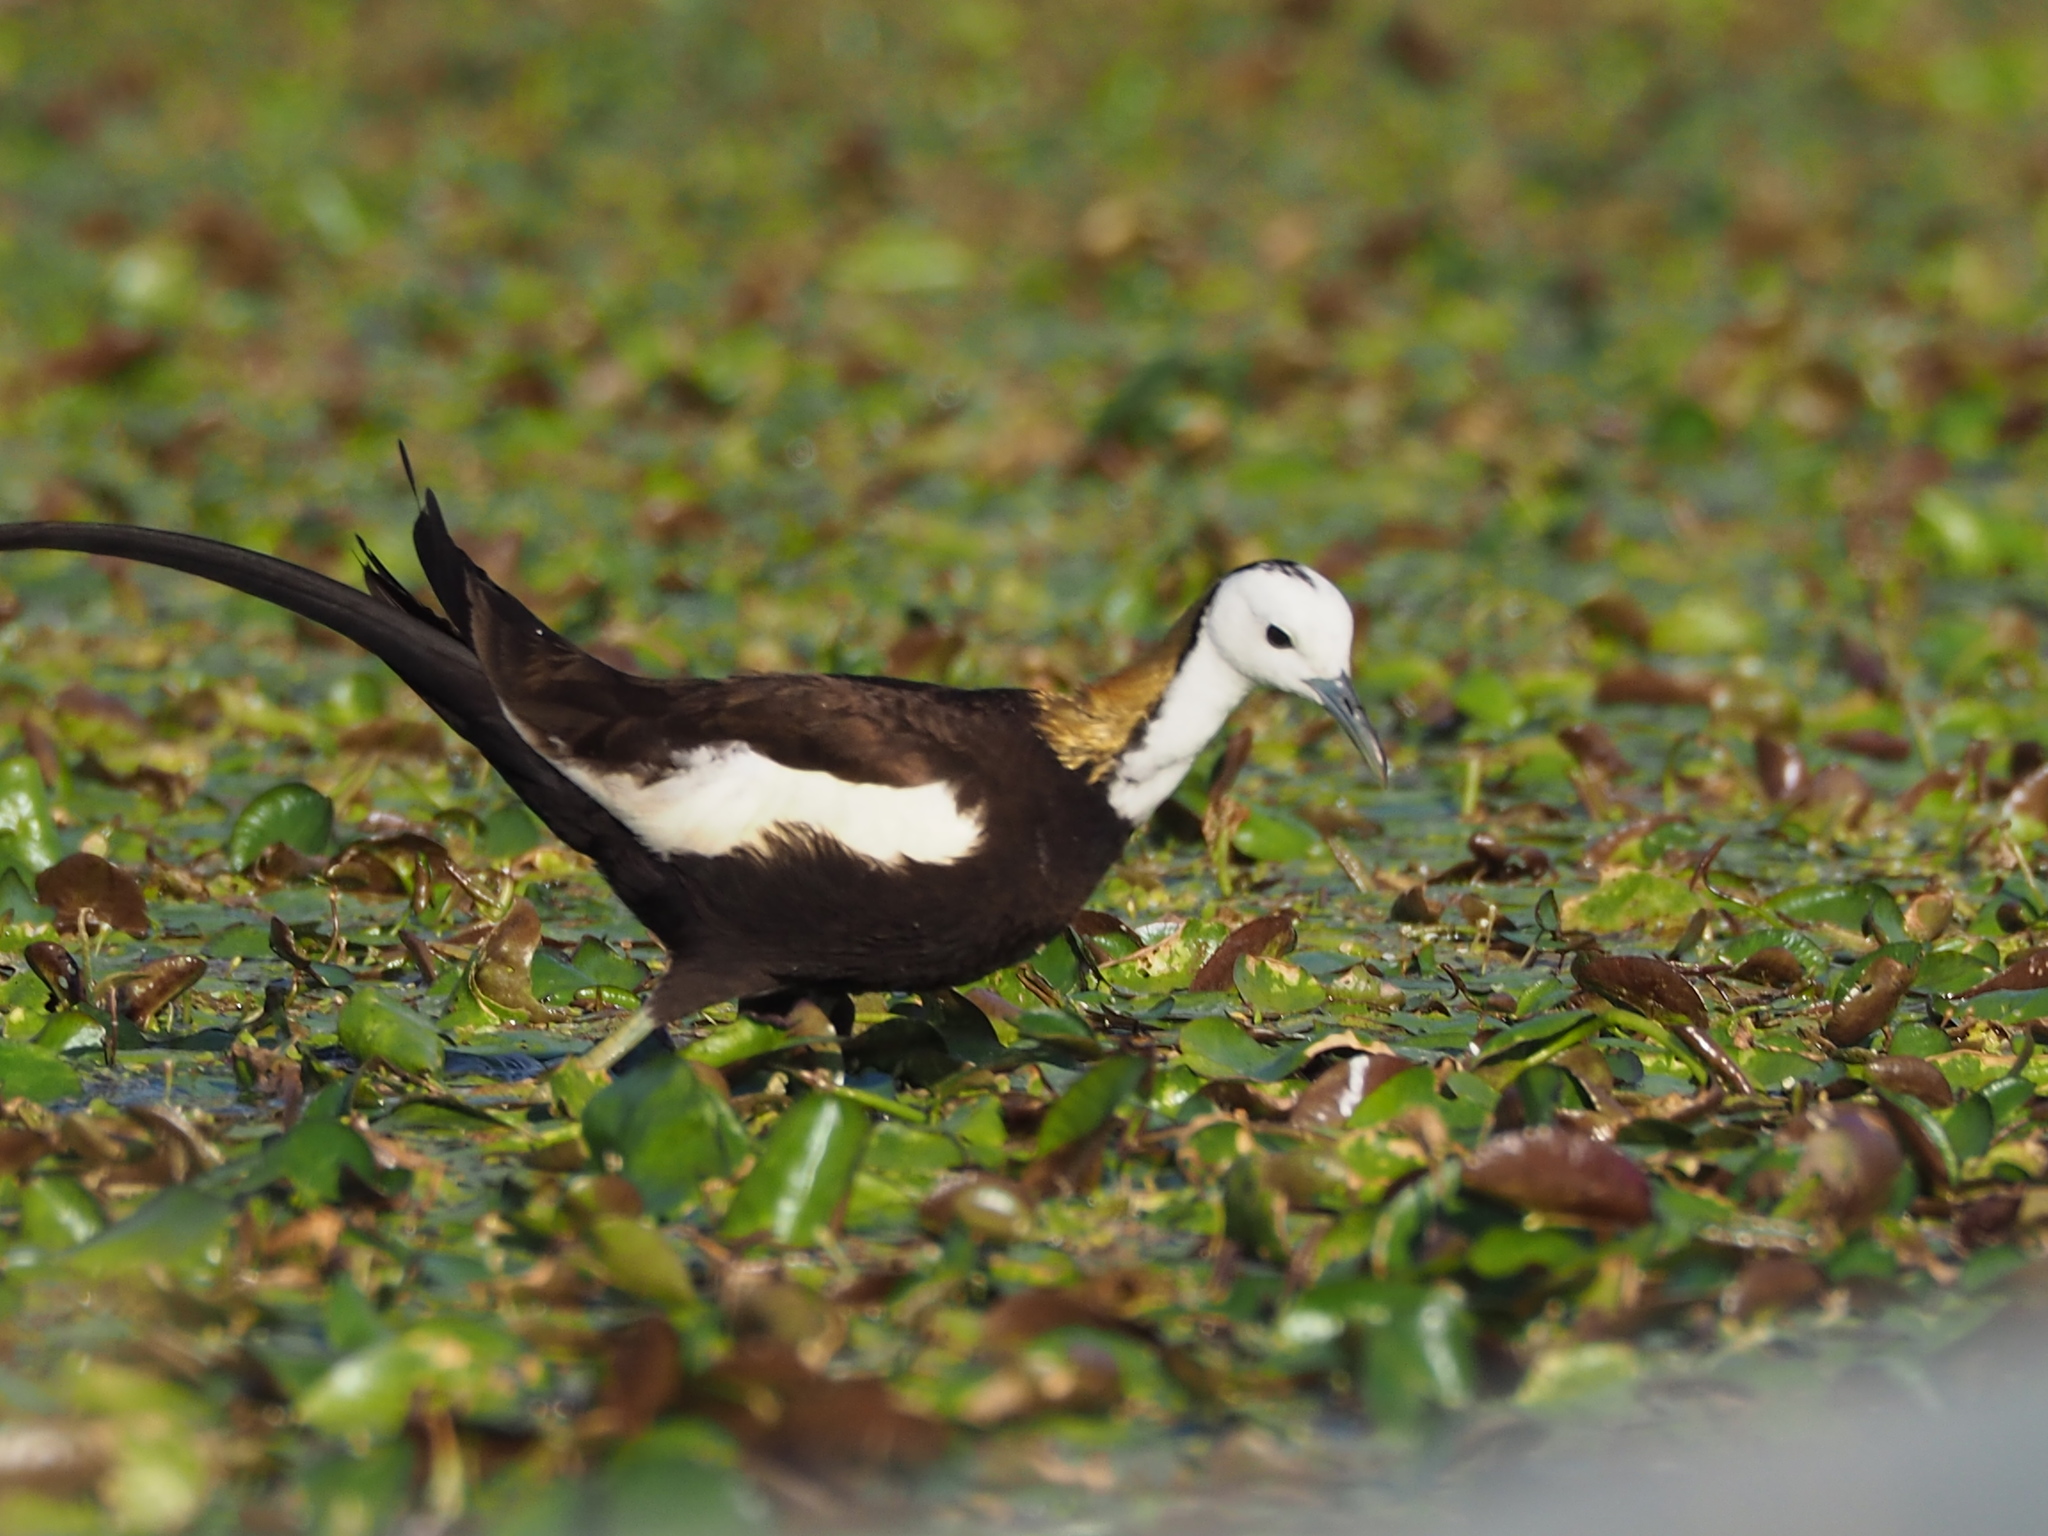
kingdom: Animalia
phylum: Chordata
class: Aves
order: Charadriiformes
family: Jacanidae
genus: Hydrophasianus
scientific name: Hydrophasianus chirurgus
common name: Pheasant-tailed jacana
